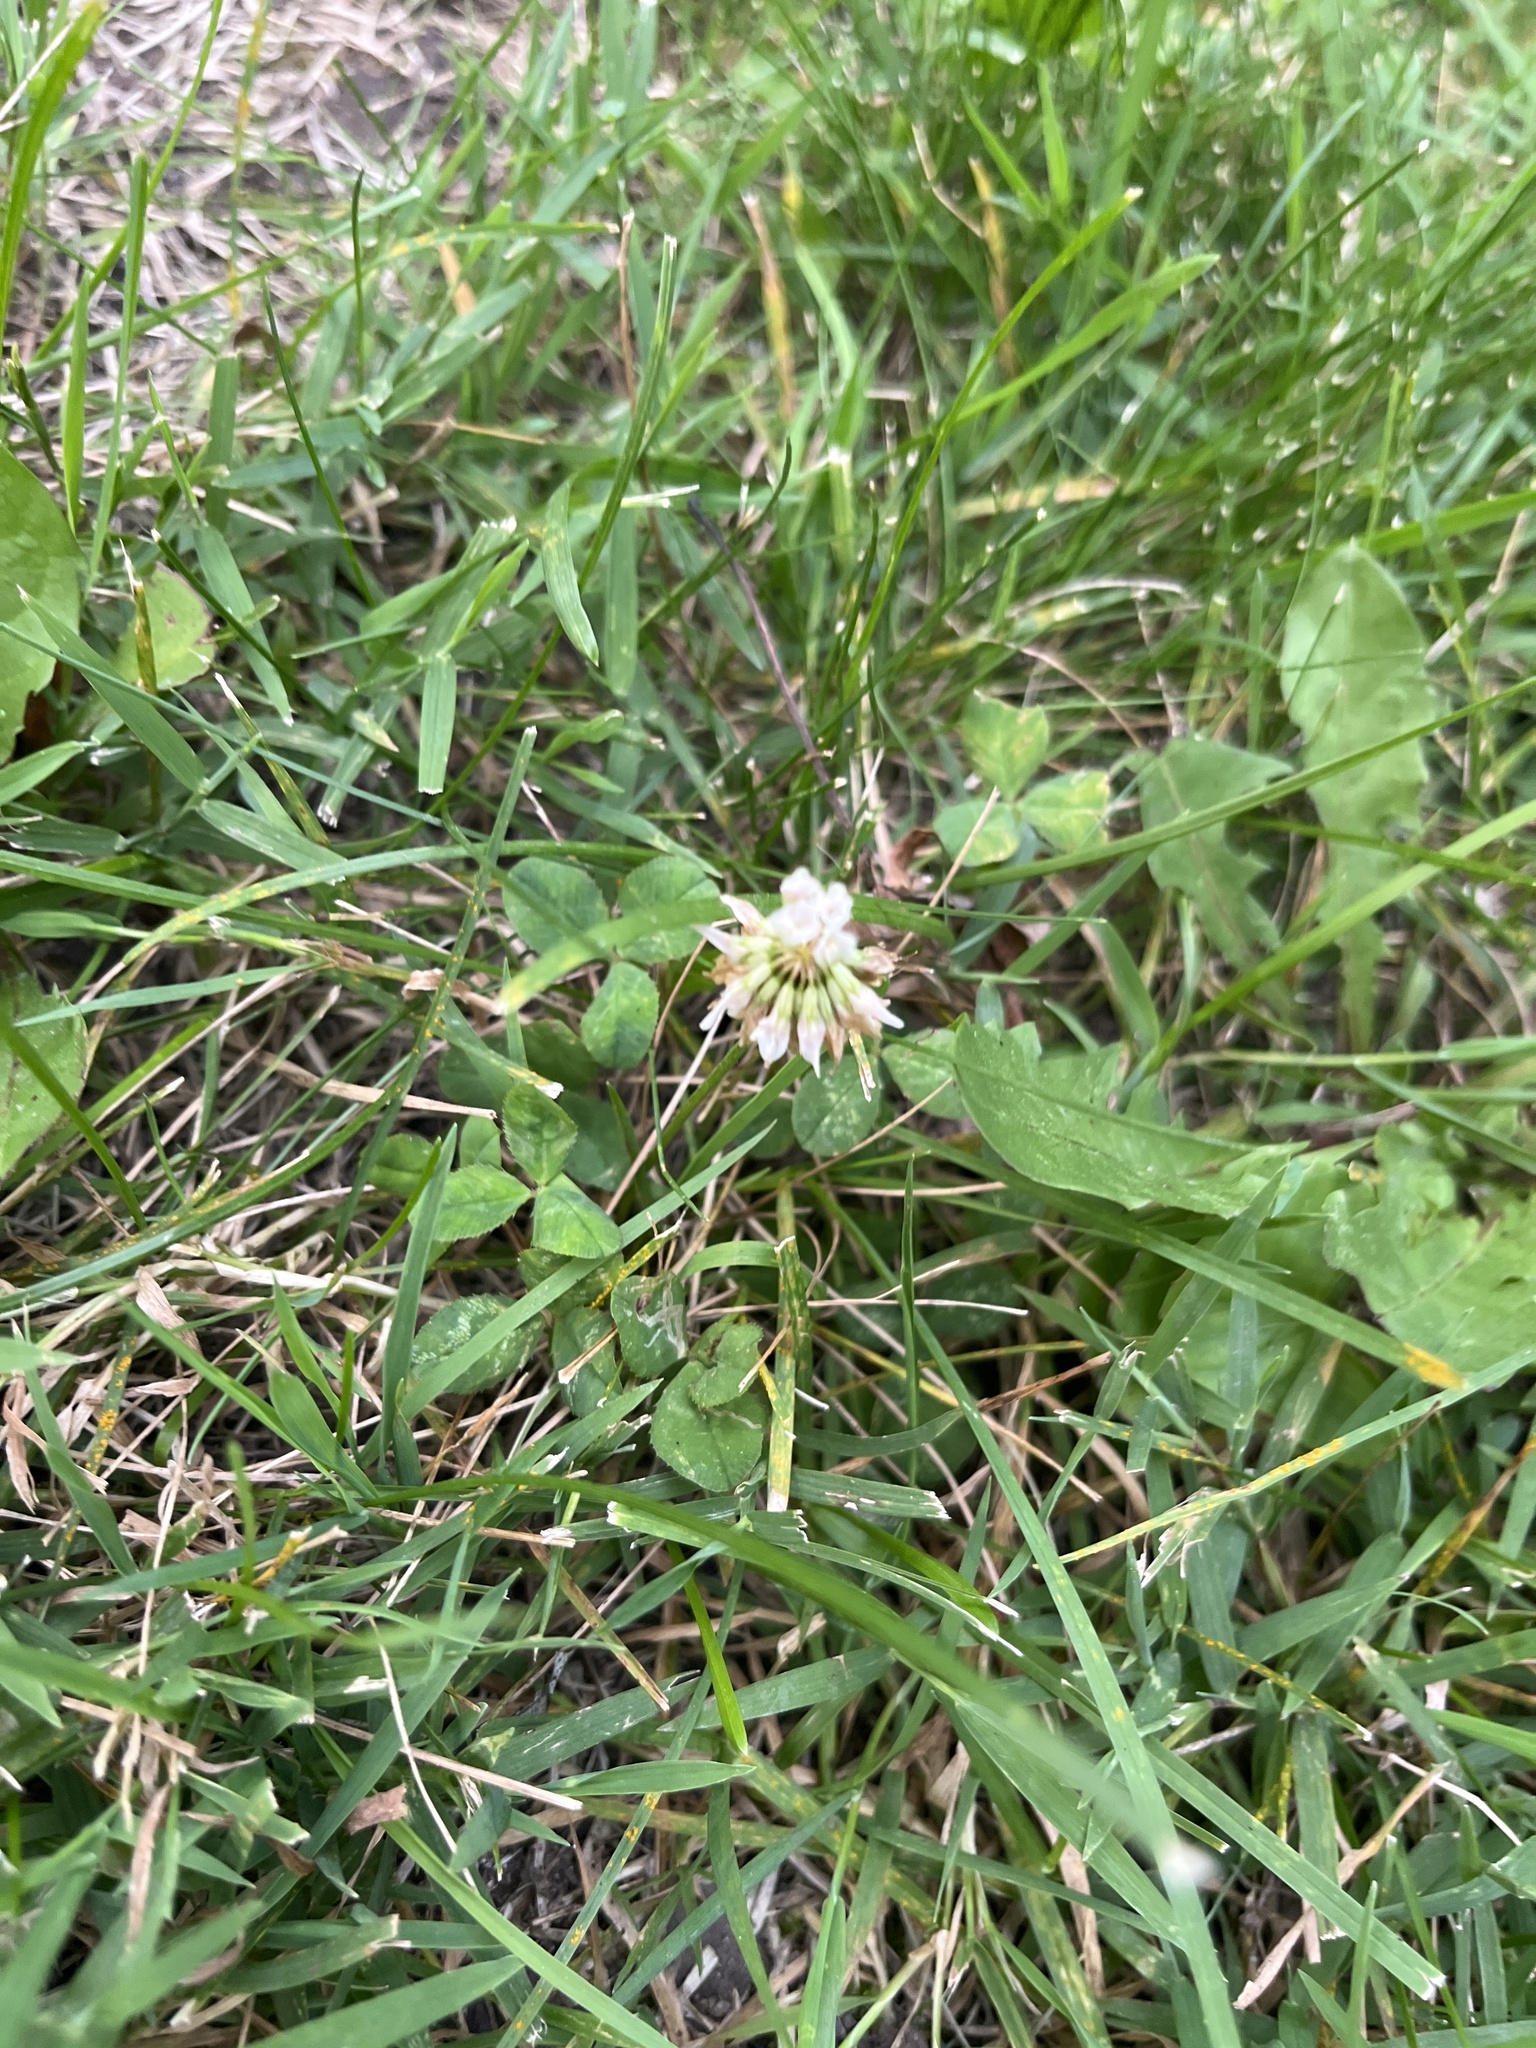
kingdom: Plantae
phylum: Tracheophyta
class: Magnoliopsida
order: Fabales
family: Fabaceae
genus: Trifolium
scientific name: Trifolium repens
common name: White clover
